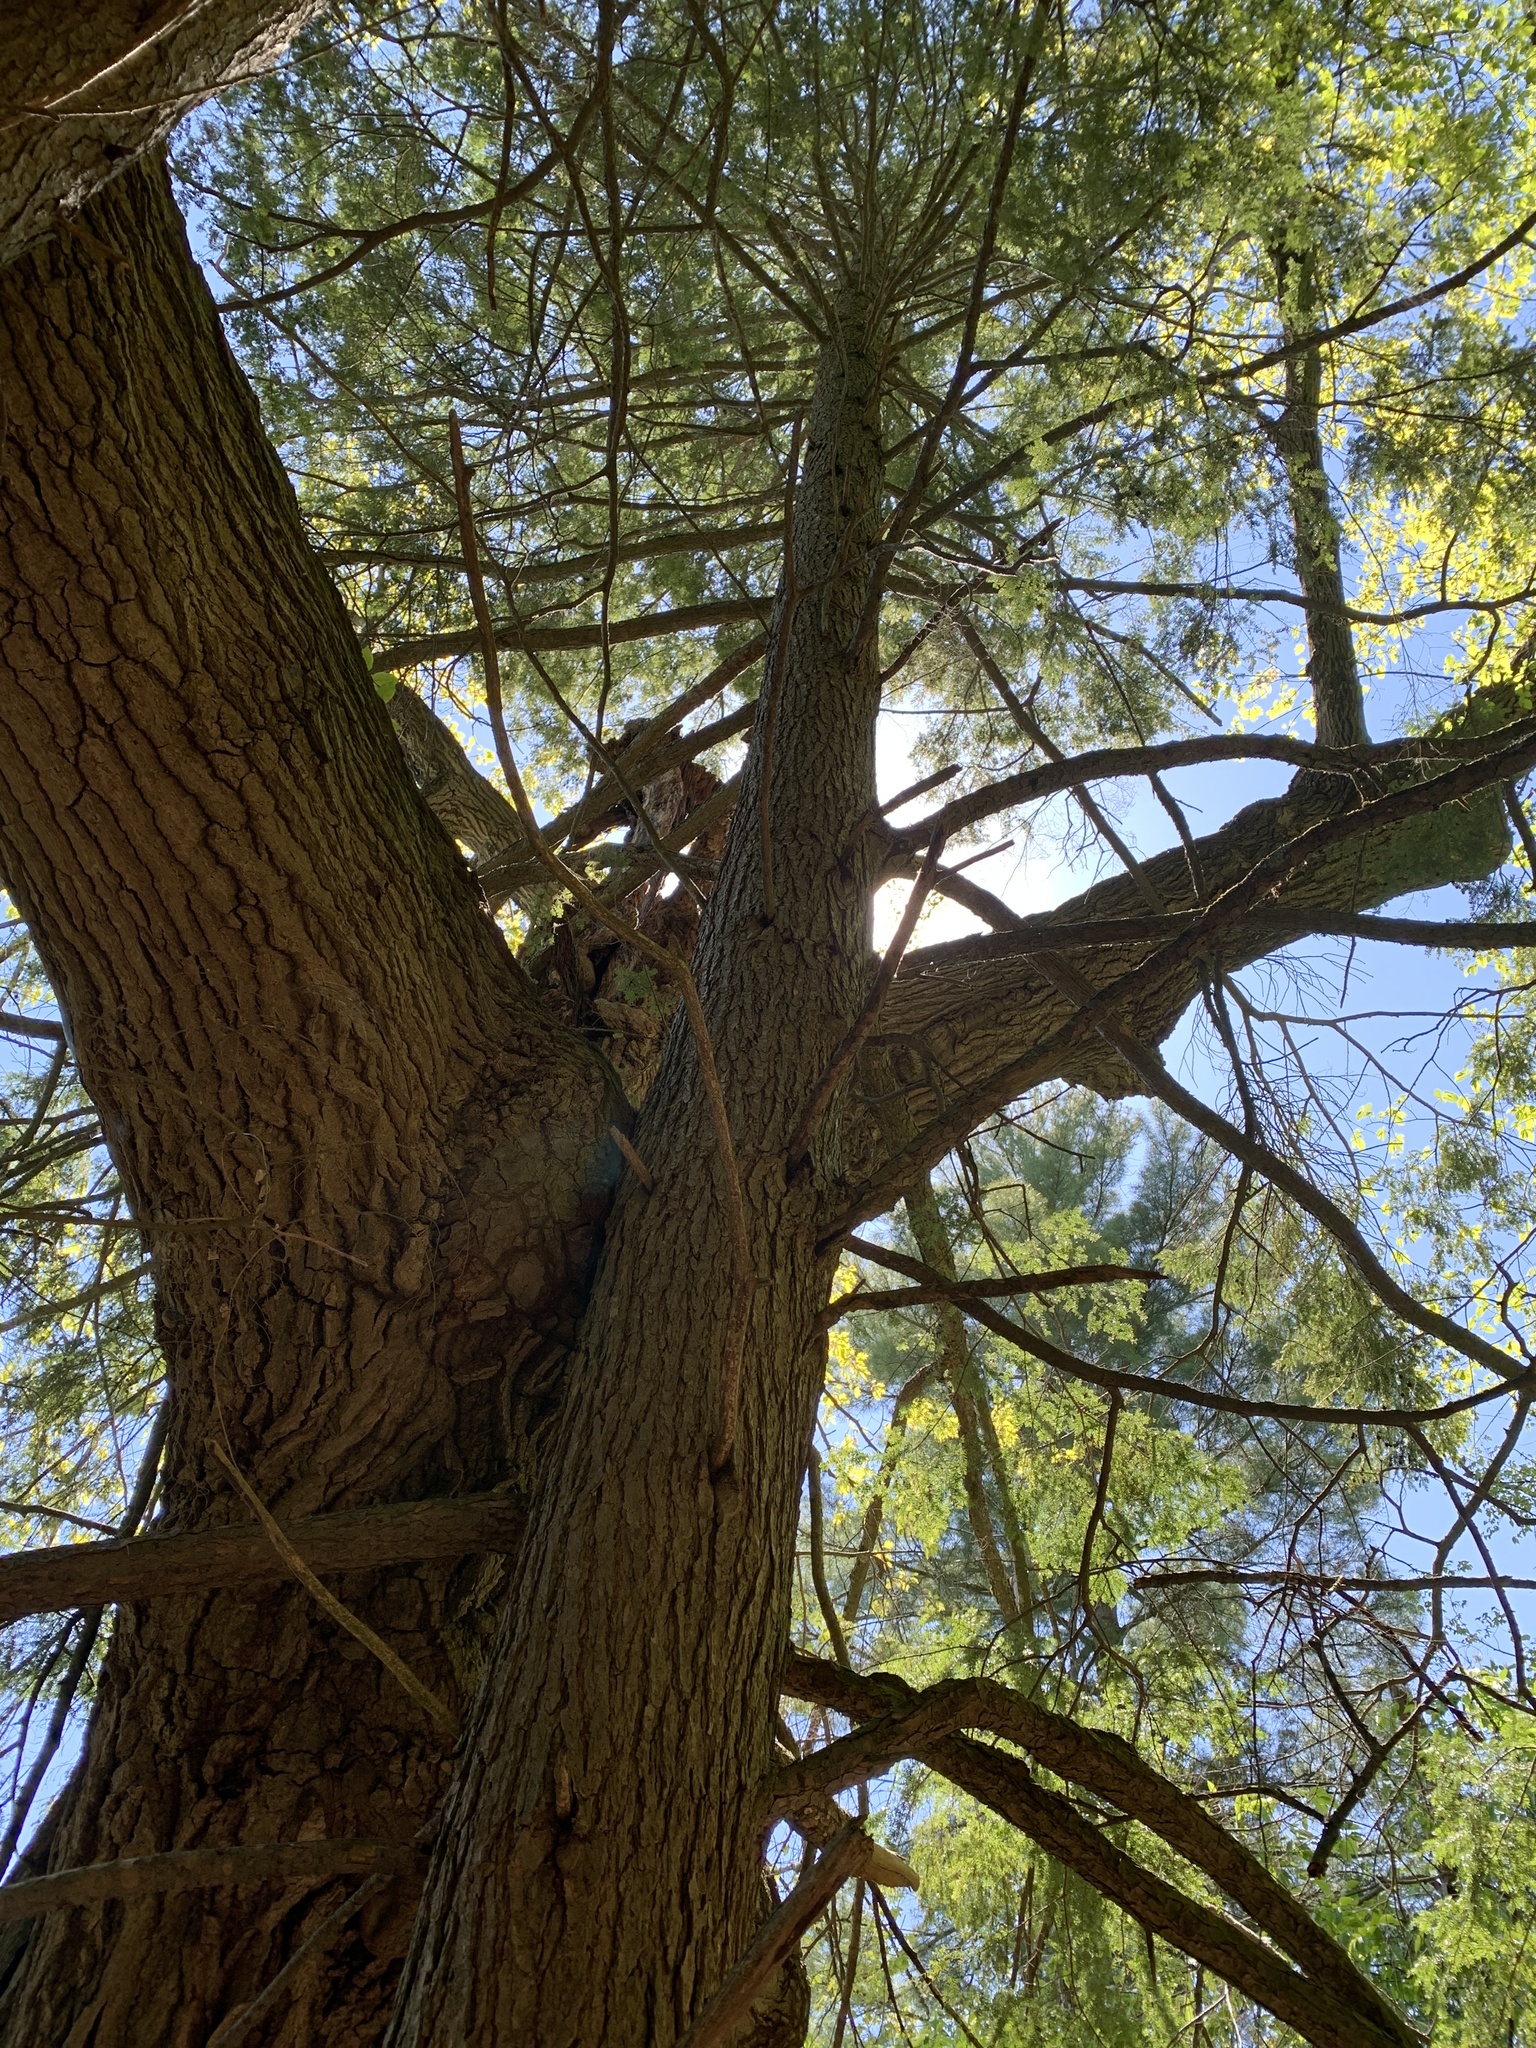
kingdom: Plantae
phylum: Tracheophyta
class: Pinopsida
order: Pinales
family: Pinaceae
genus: Tsuga
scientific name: Tsuga canadensis
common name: Eastern hemlock
